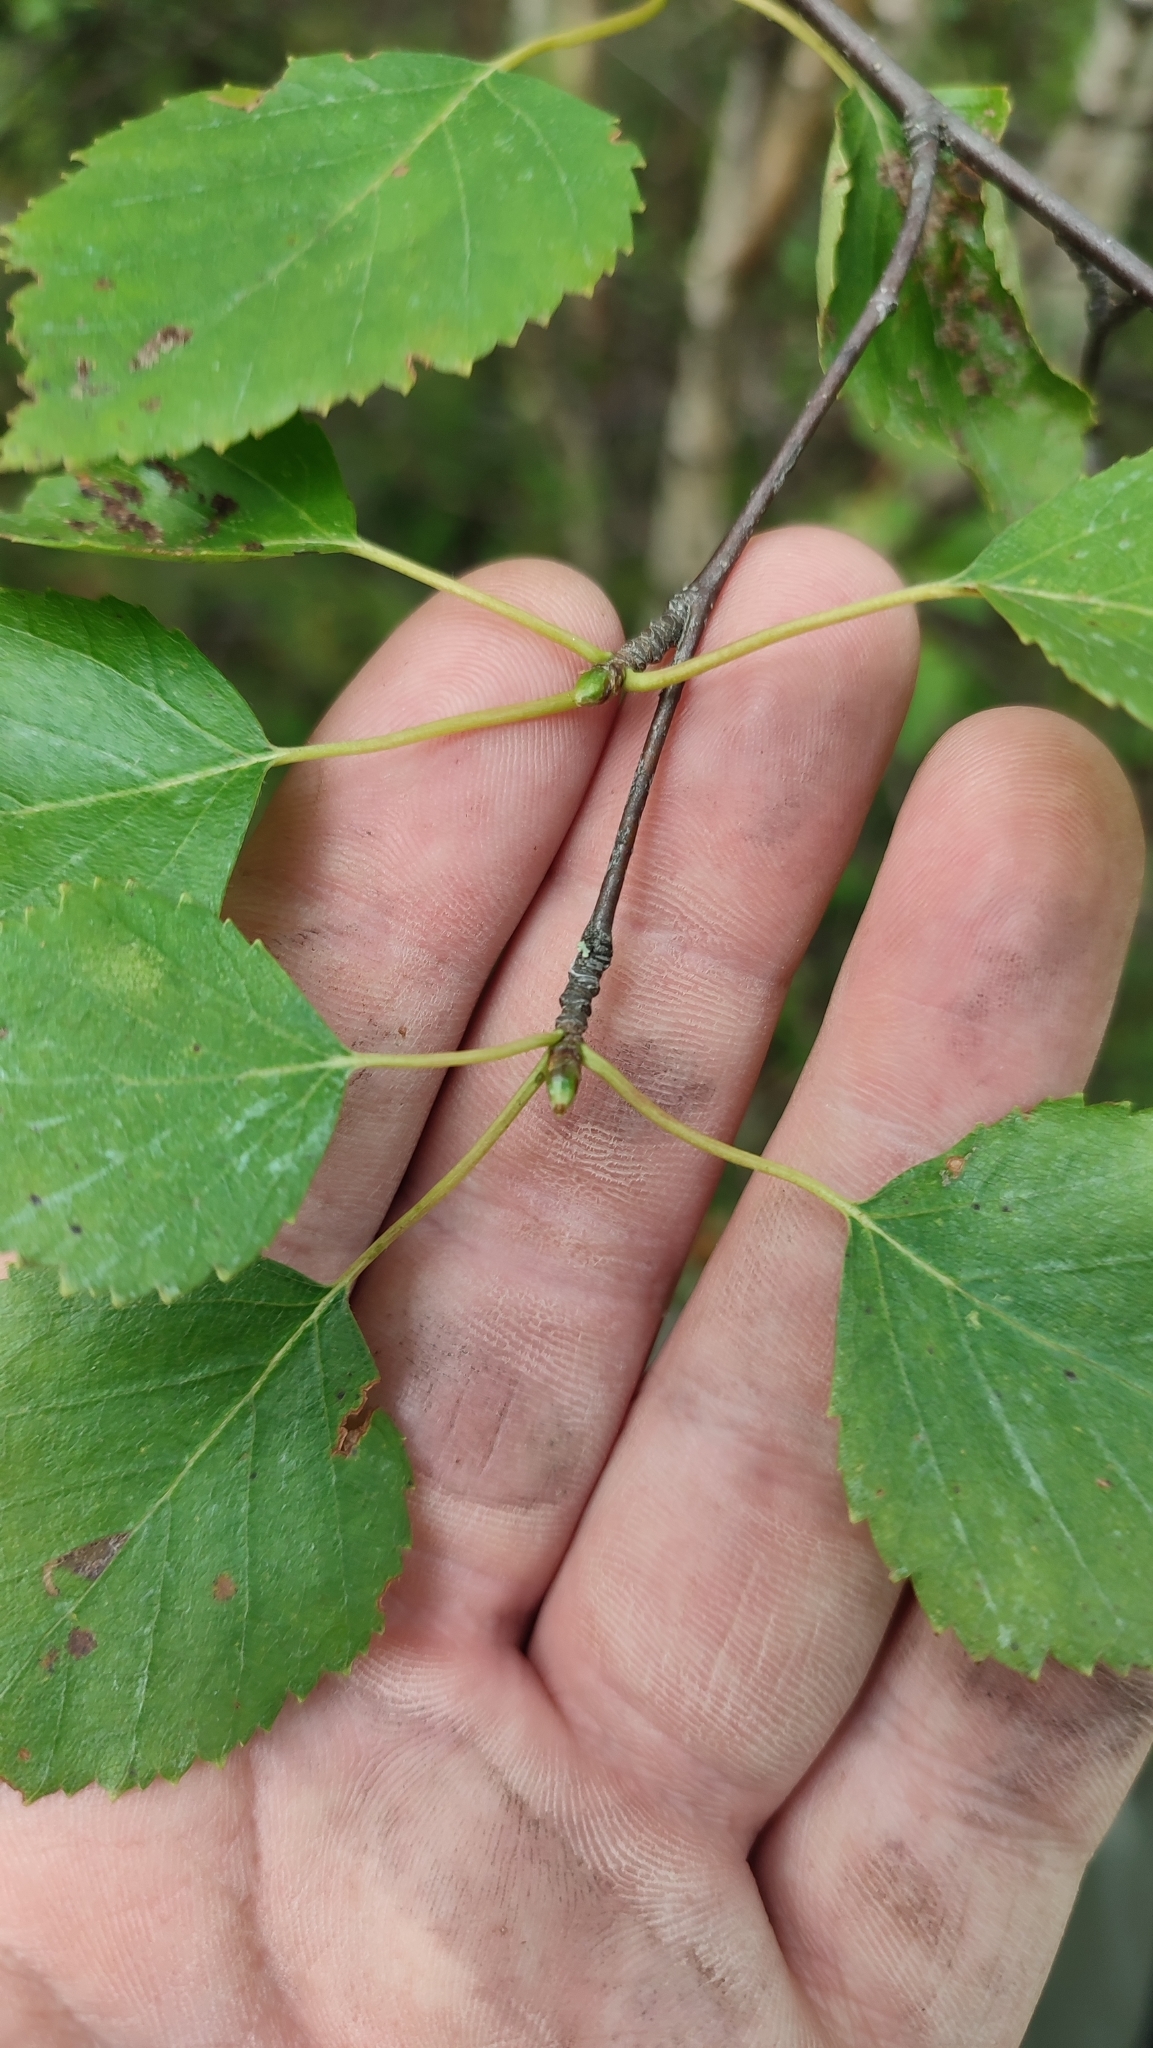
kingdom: Plantae
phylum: Tracheophyta
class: Magnoliopsida
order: Fagales
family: Betulaceae
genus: Betula
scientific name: Betula pubescens
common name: Downy birch
